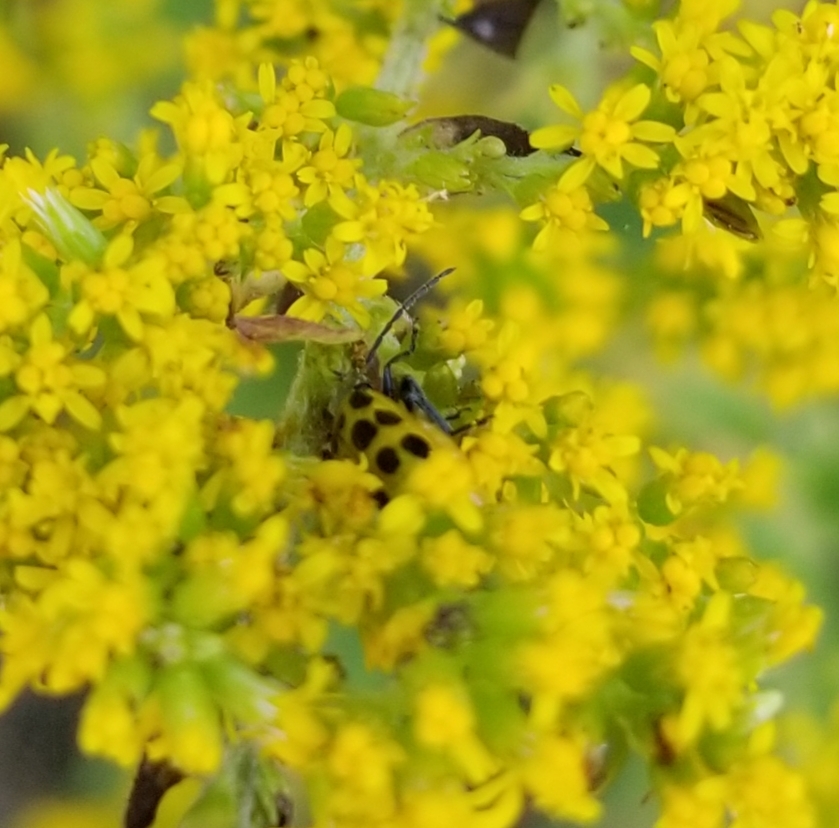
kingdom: Animalia
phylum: Arthropoda
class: Insecta
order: Coleoptera
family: Chrysomelidae
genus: Diabrotica
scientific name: Diabrotica undecimpunctata
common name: Spotted cucumber beetle
